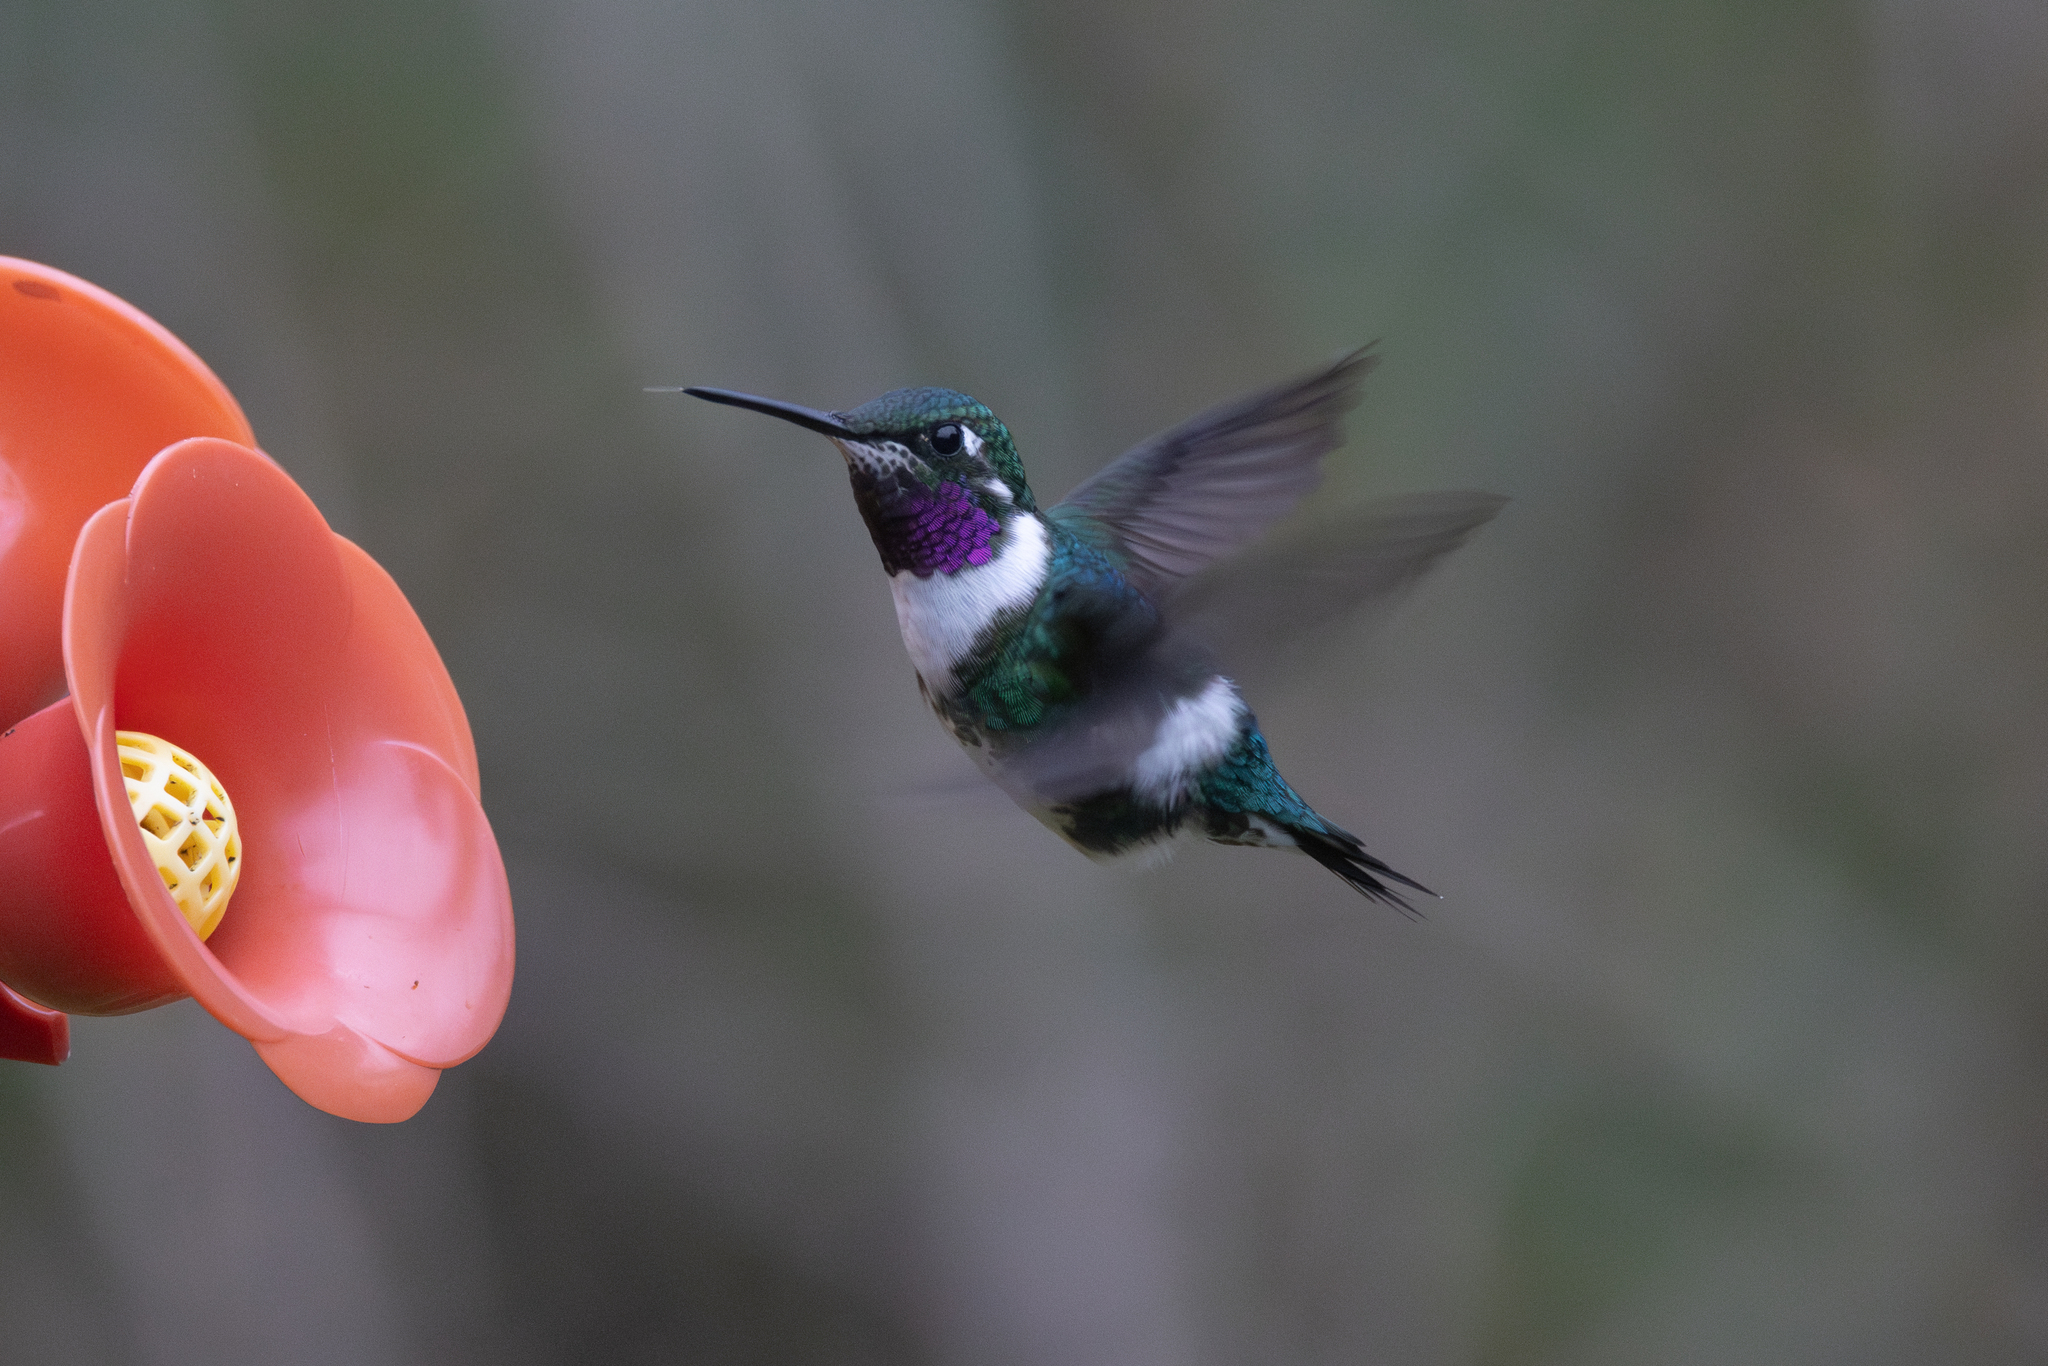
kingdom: Animalia
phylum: Chordata
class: Aves
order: Apodiformes
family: Trochilidae
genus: Chaetocercus
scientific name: Chaetocercus mulsant
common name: White-bellied woodstar
